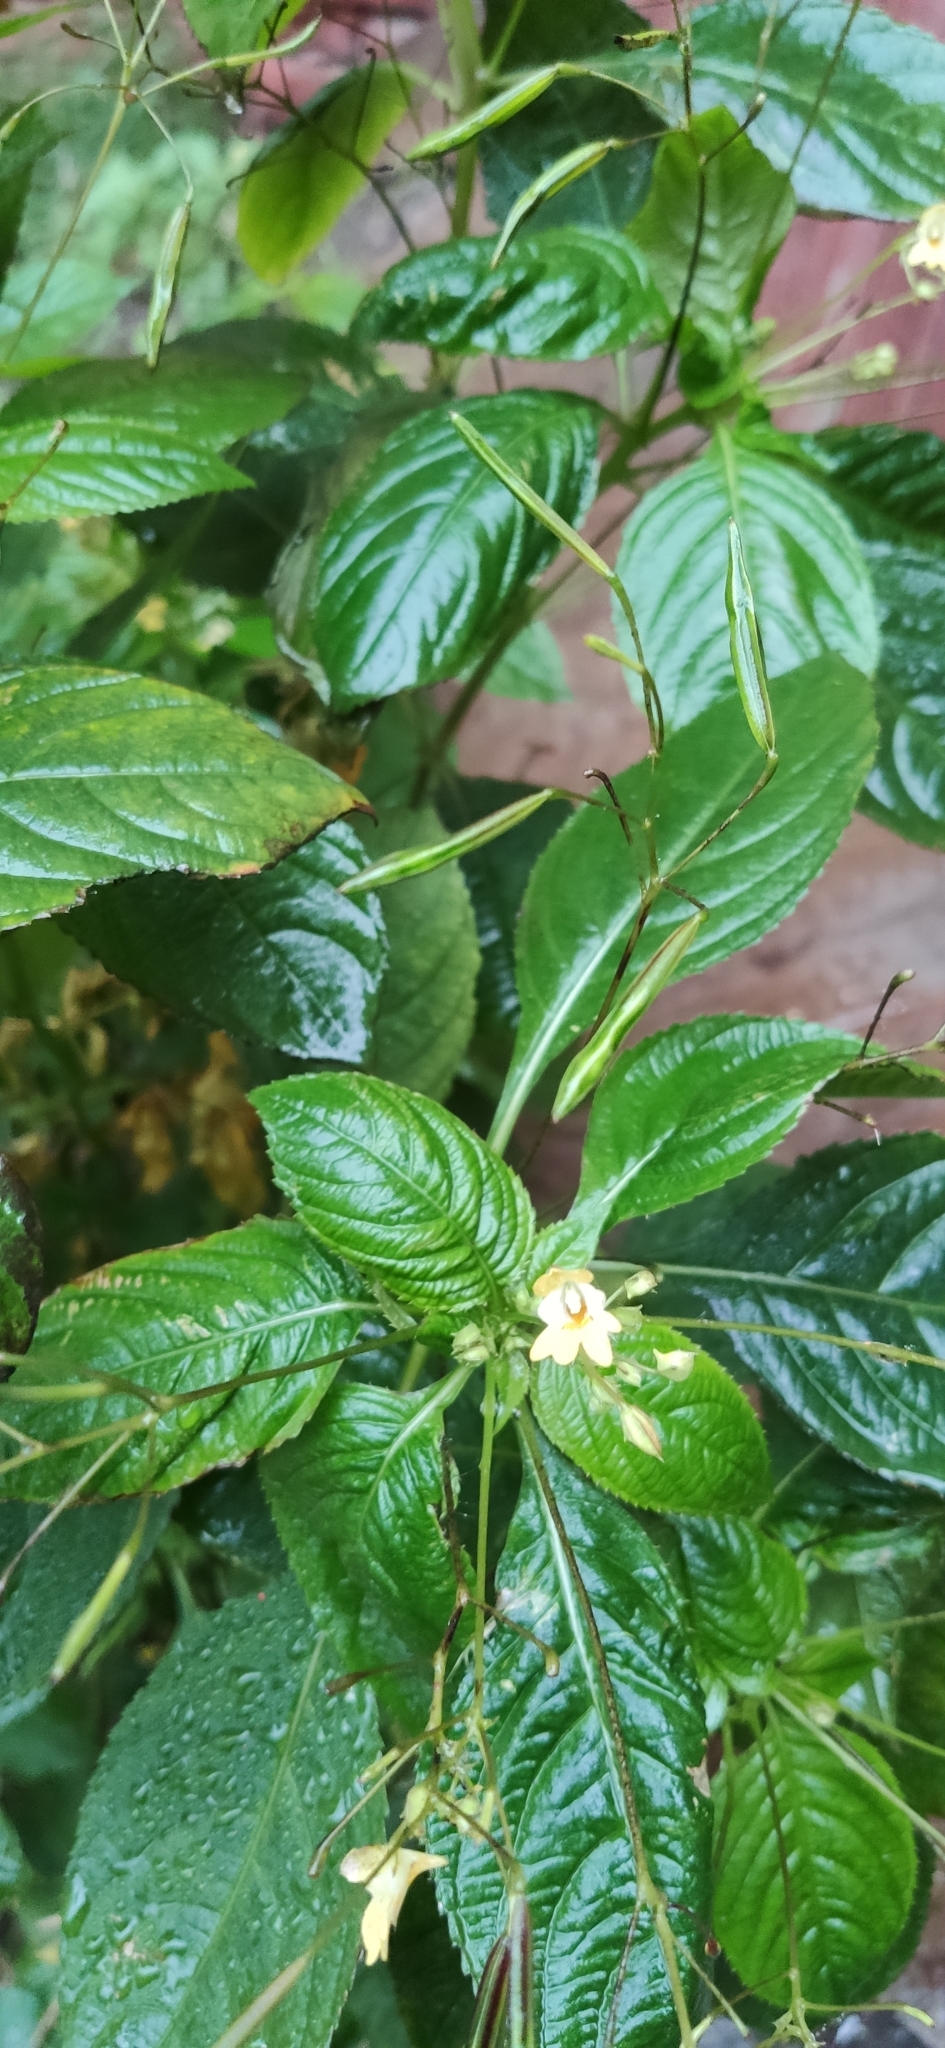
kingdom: Plantae
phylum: Tracheophyta
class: Magnoliopsida
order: Ericales
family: Balsaminaceae
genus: Impatiens
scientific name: Impatiens parviflora
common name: Small balsam
